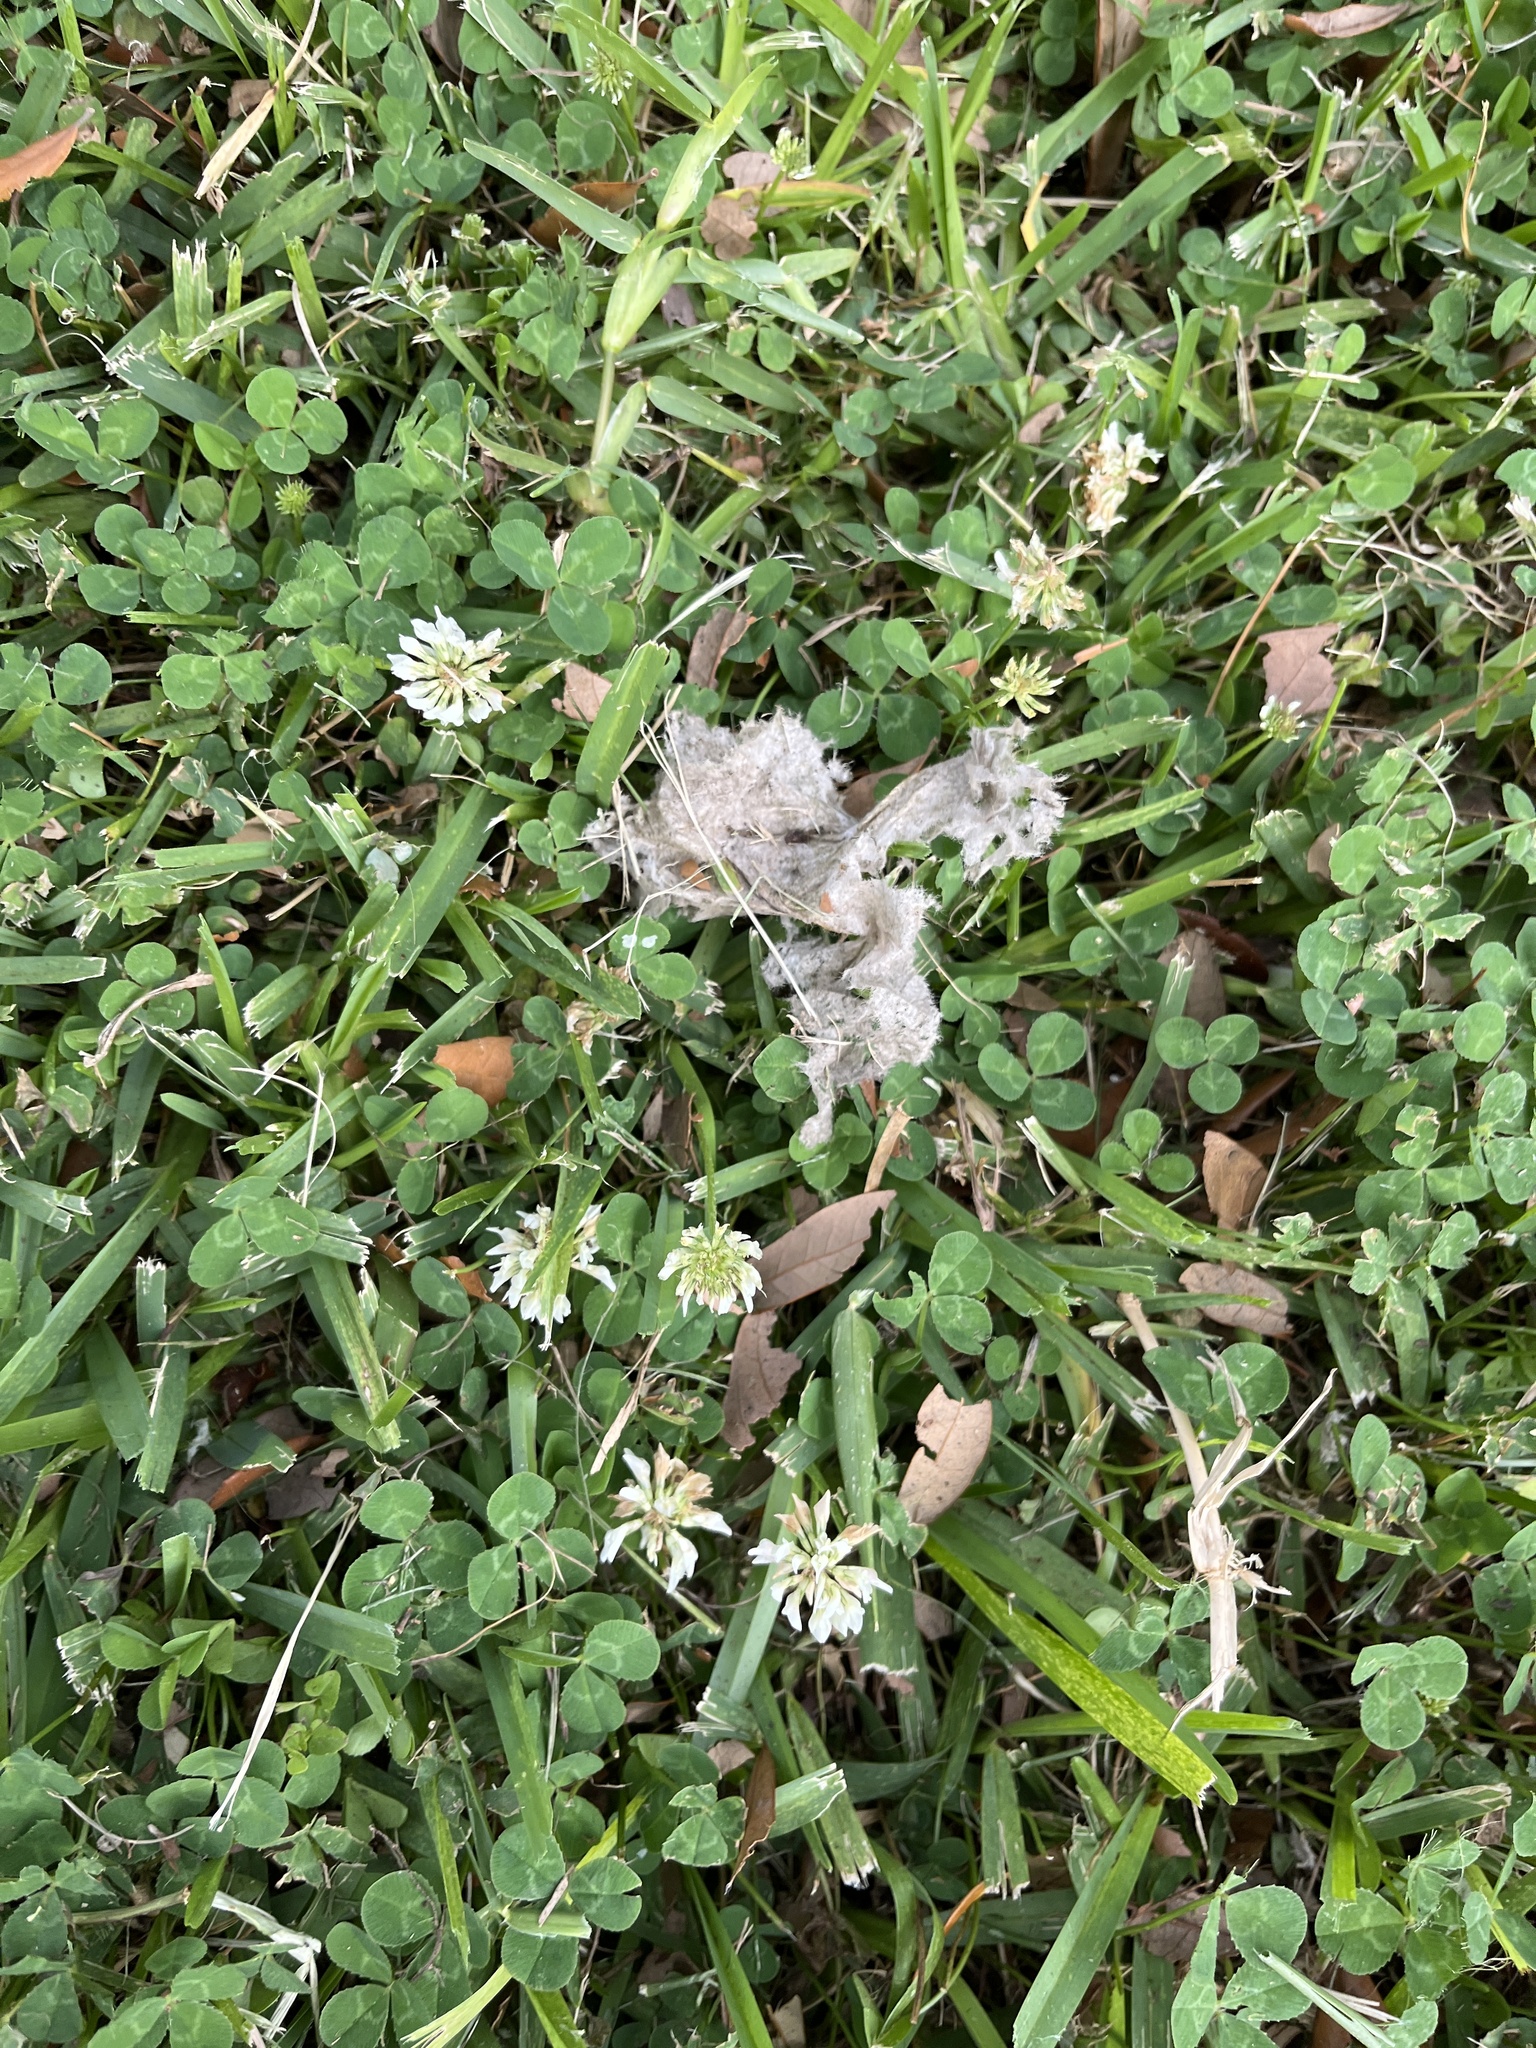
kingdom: Plantae
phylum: Tracheophyta
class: Magnoliopsida
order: Fabales
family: Fabaceae
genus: Trifolium
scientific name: Trifolium repens
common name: White clover
